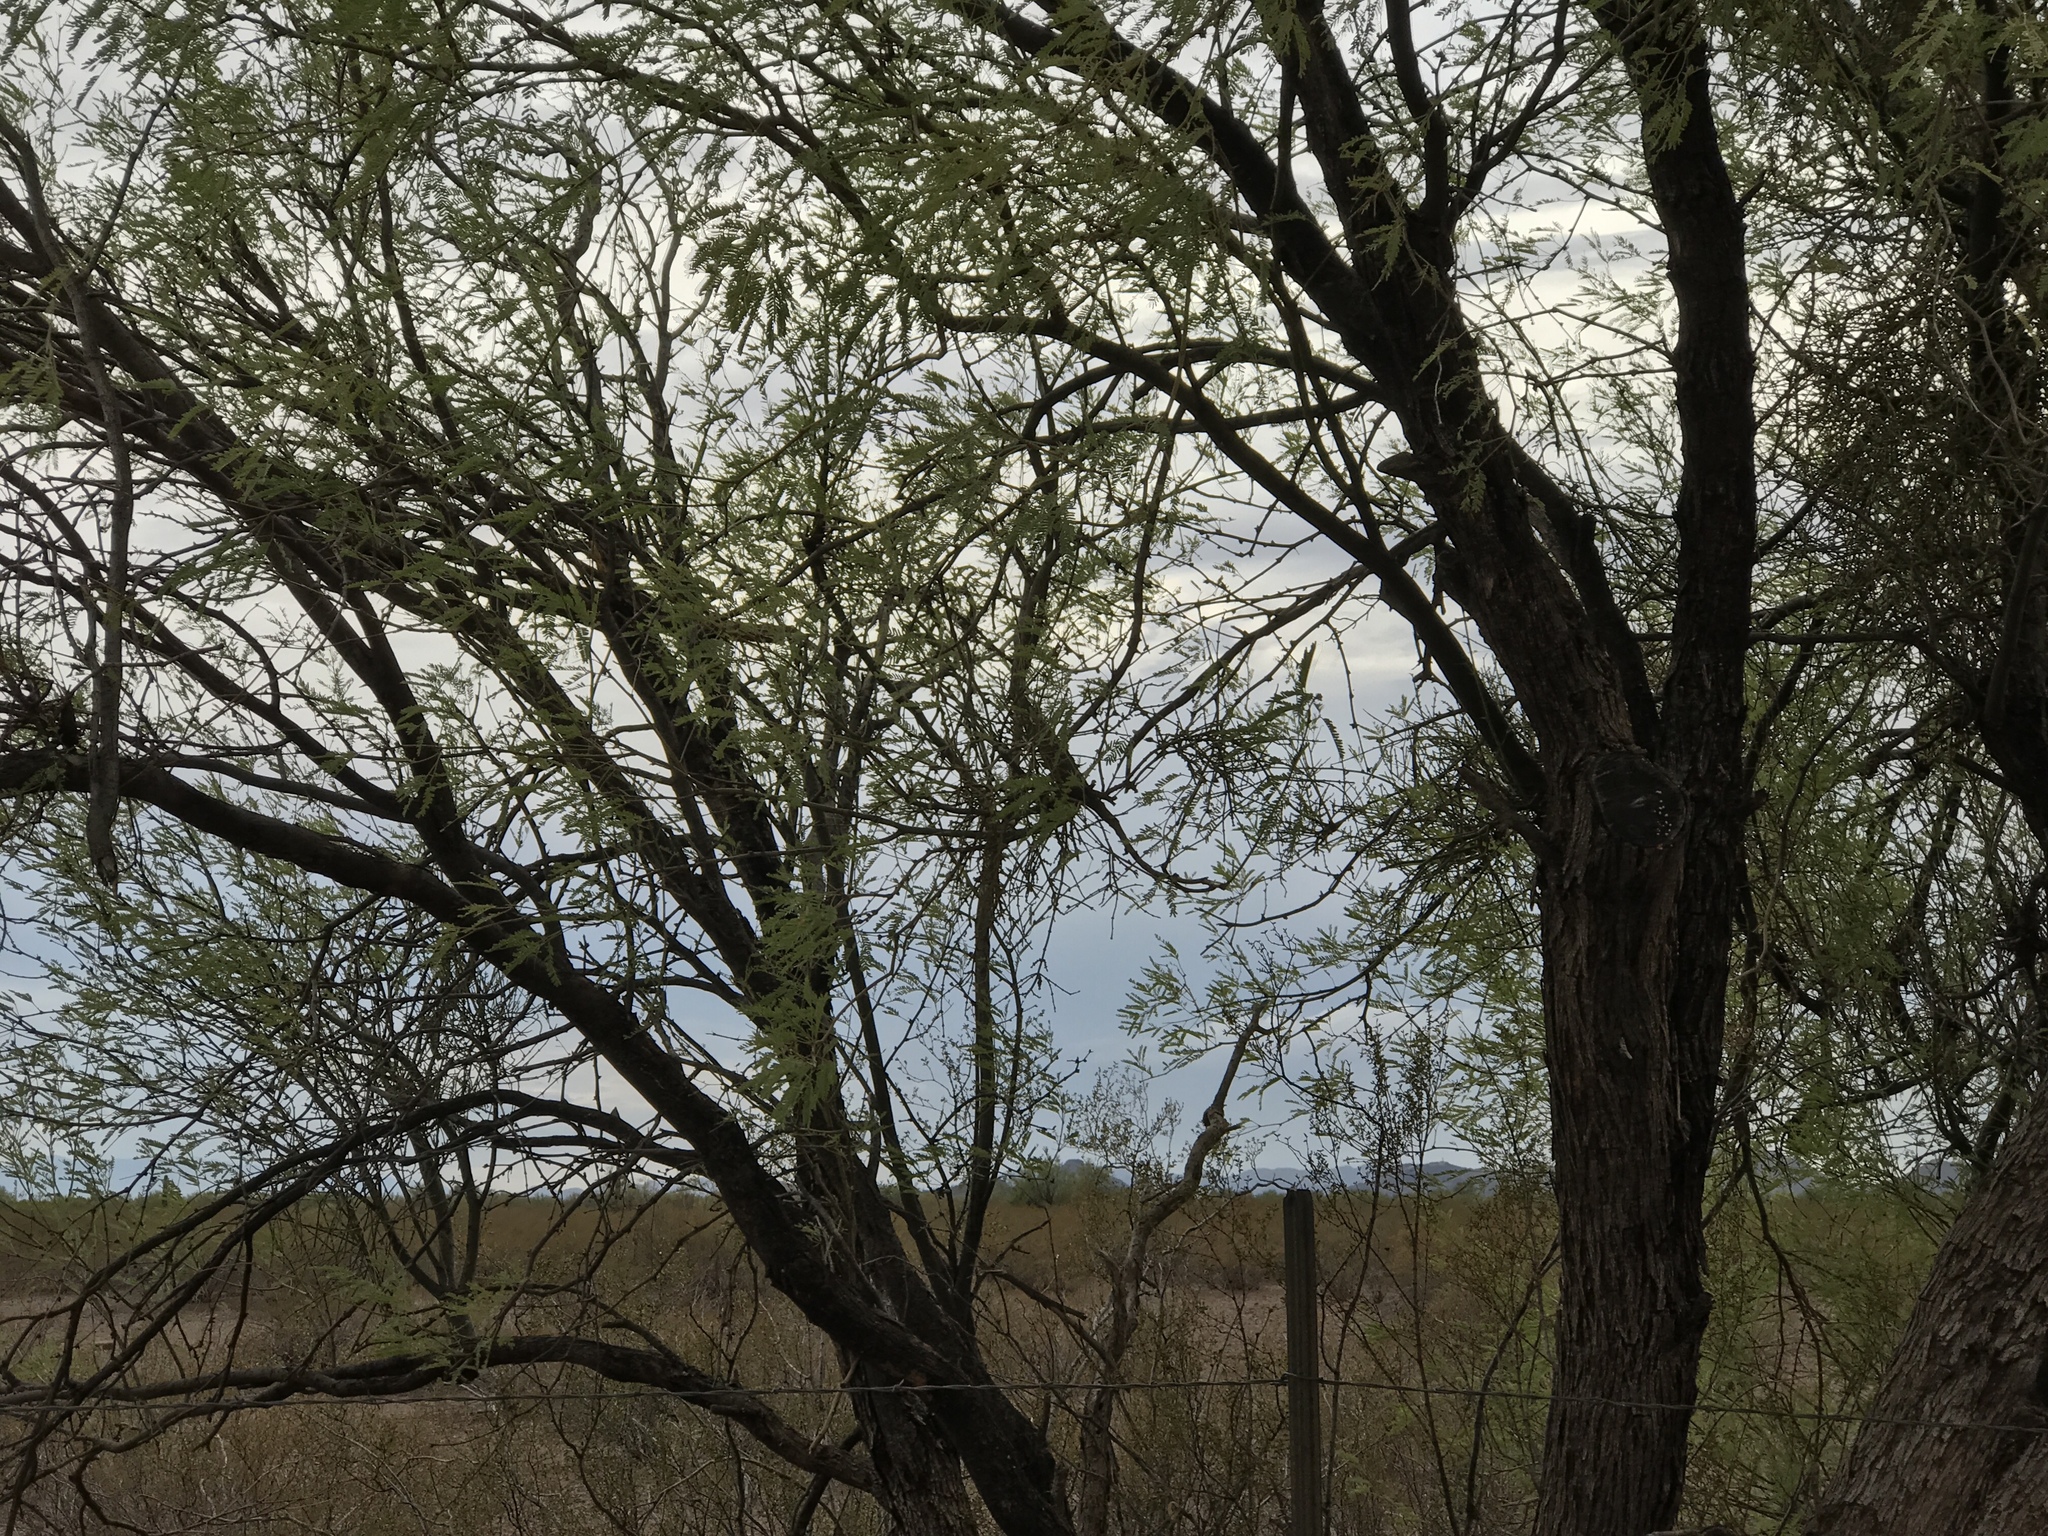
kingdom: Plantae
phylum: Tracheophyta
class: Magnoliopsida
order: Fabales
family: Fabaceae
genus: Olneya
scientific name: Olneya tesota
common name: Desert ironwood
